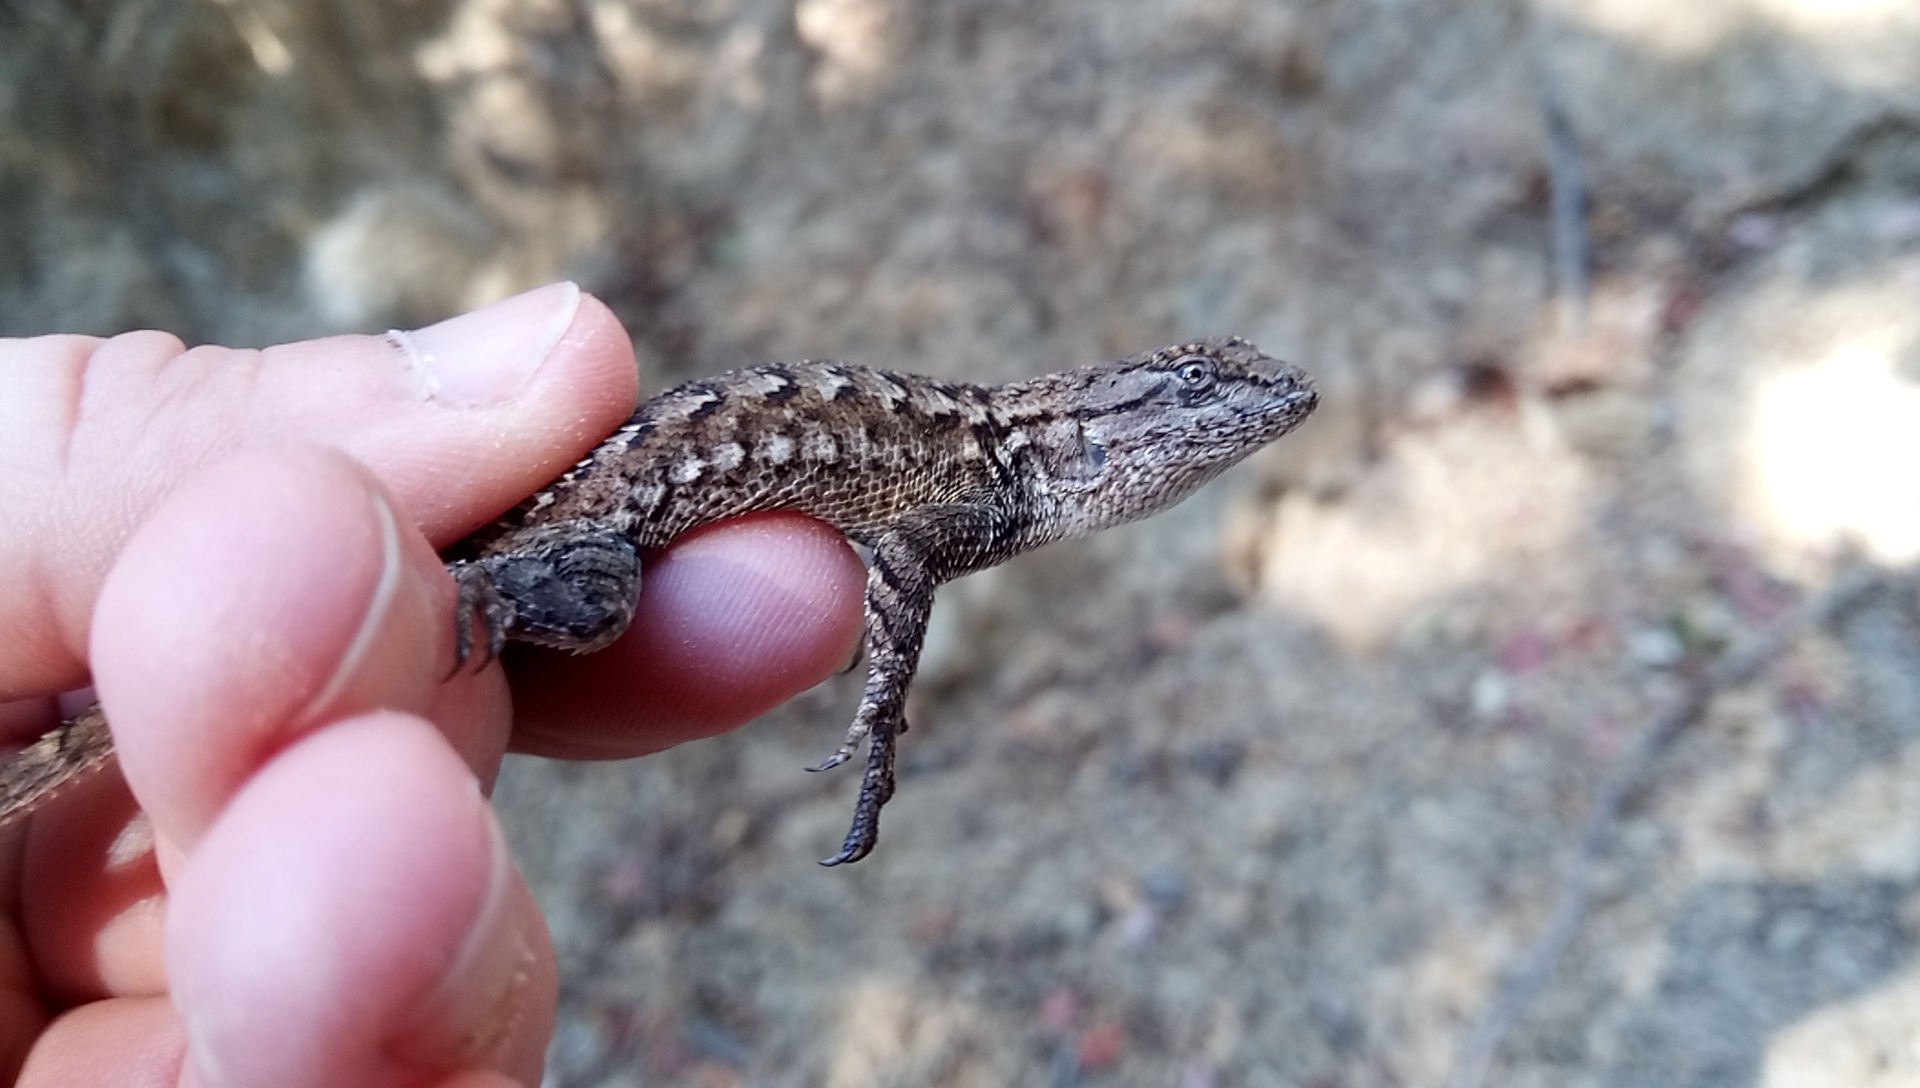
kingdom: Animalia
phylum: Chordata
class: Squamata
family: Phrynosomatidae
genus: Sceloporus
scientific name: Sceloporus occidentalis
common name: Western fence lizard
